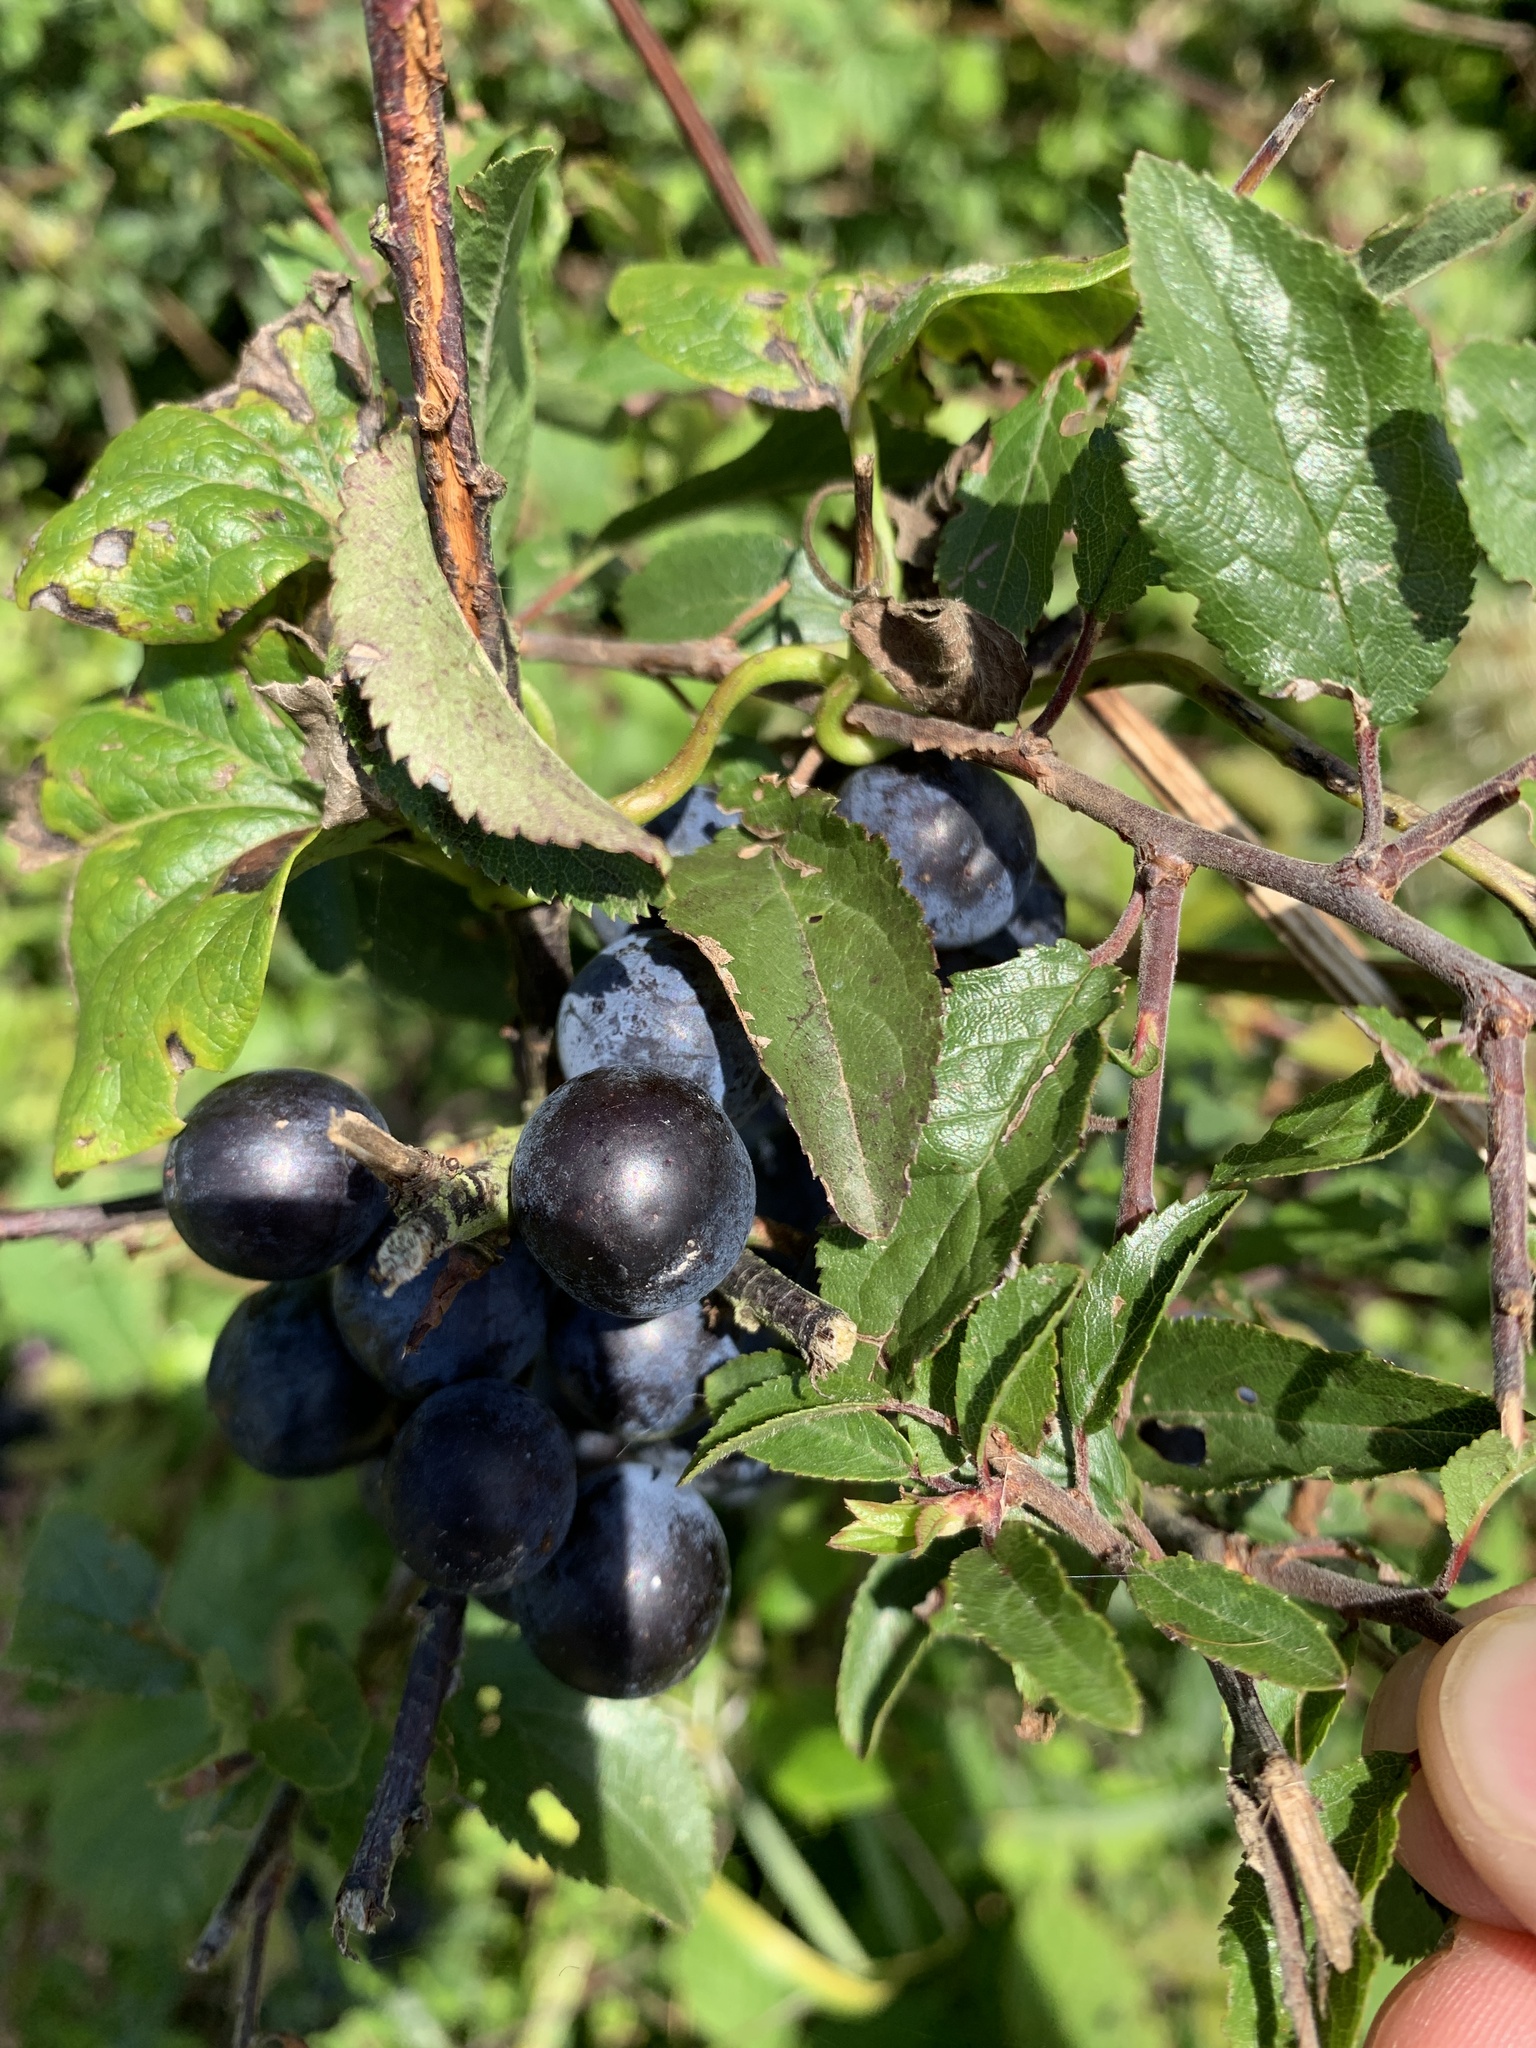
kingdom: Plantae
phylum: Tracheophyta
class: Magnoliopsida
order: Rosales
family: Rosaceae
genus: Prunus
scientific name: Prunus spinosa
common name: Blackthorn
